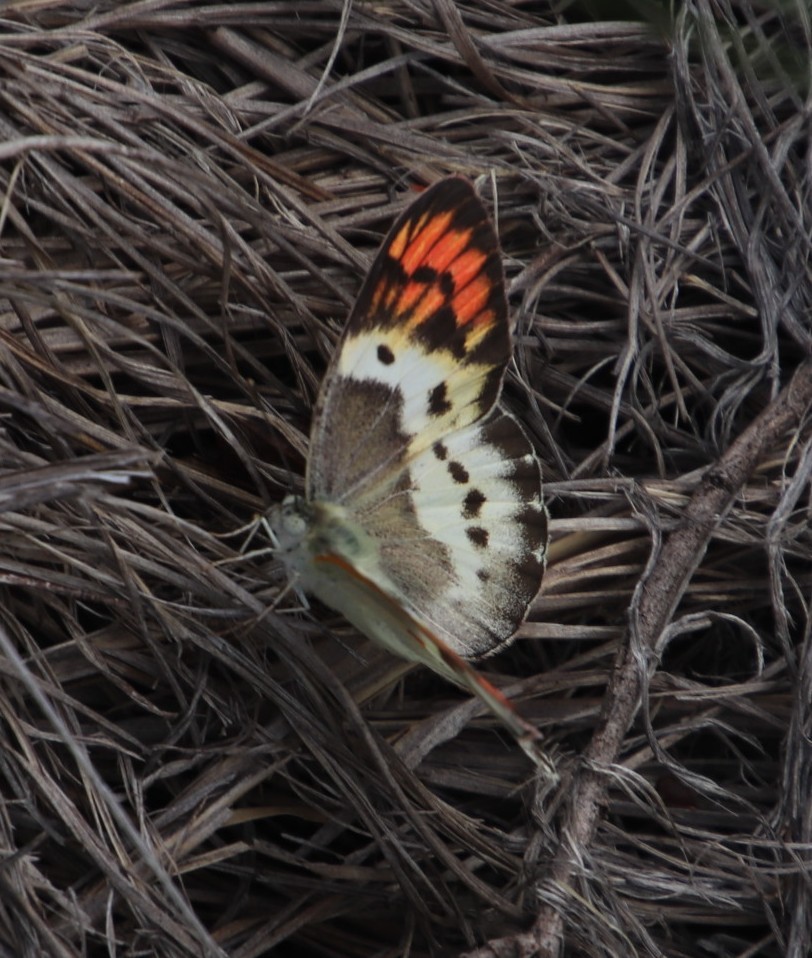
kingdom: Animalia
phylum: Arthropoda
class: Insecta
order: Lepidoptera
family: Pieridae
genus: Colotis
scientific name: Colotis annae
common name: Scarlet tip
